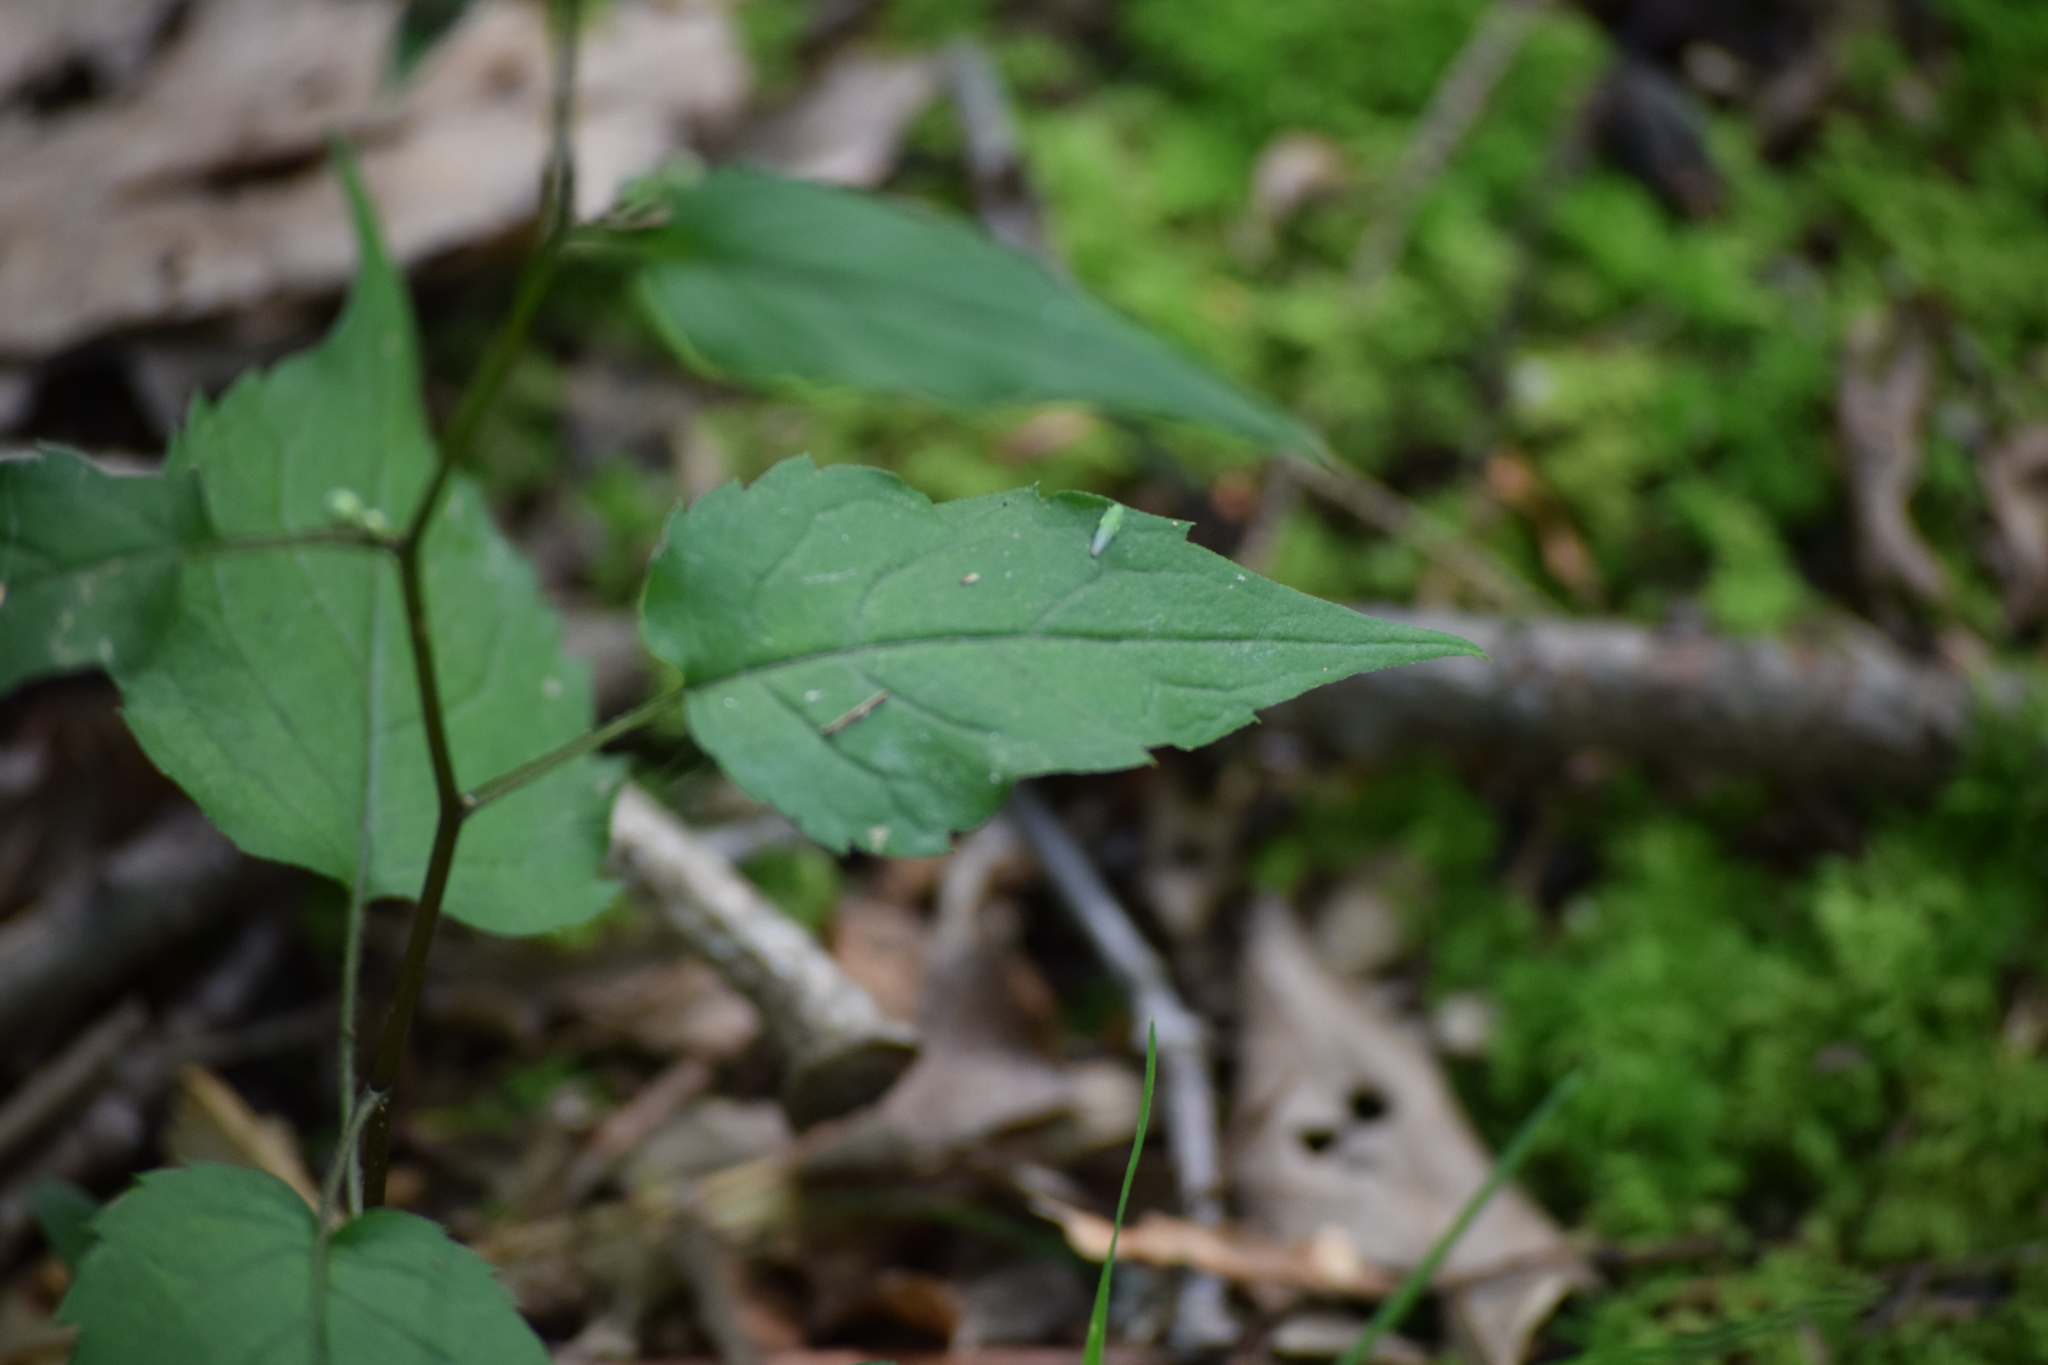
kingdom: Plantae
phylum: Tracheophyta
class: Magnoliopsida
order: Asterales
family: Asteraceae
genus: Eurybia
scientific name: Eurybia divaricata
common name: White wood aster
